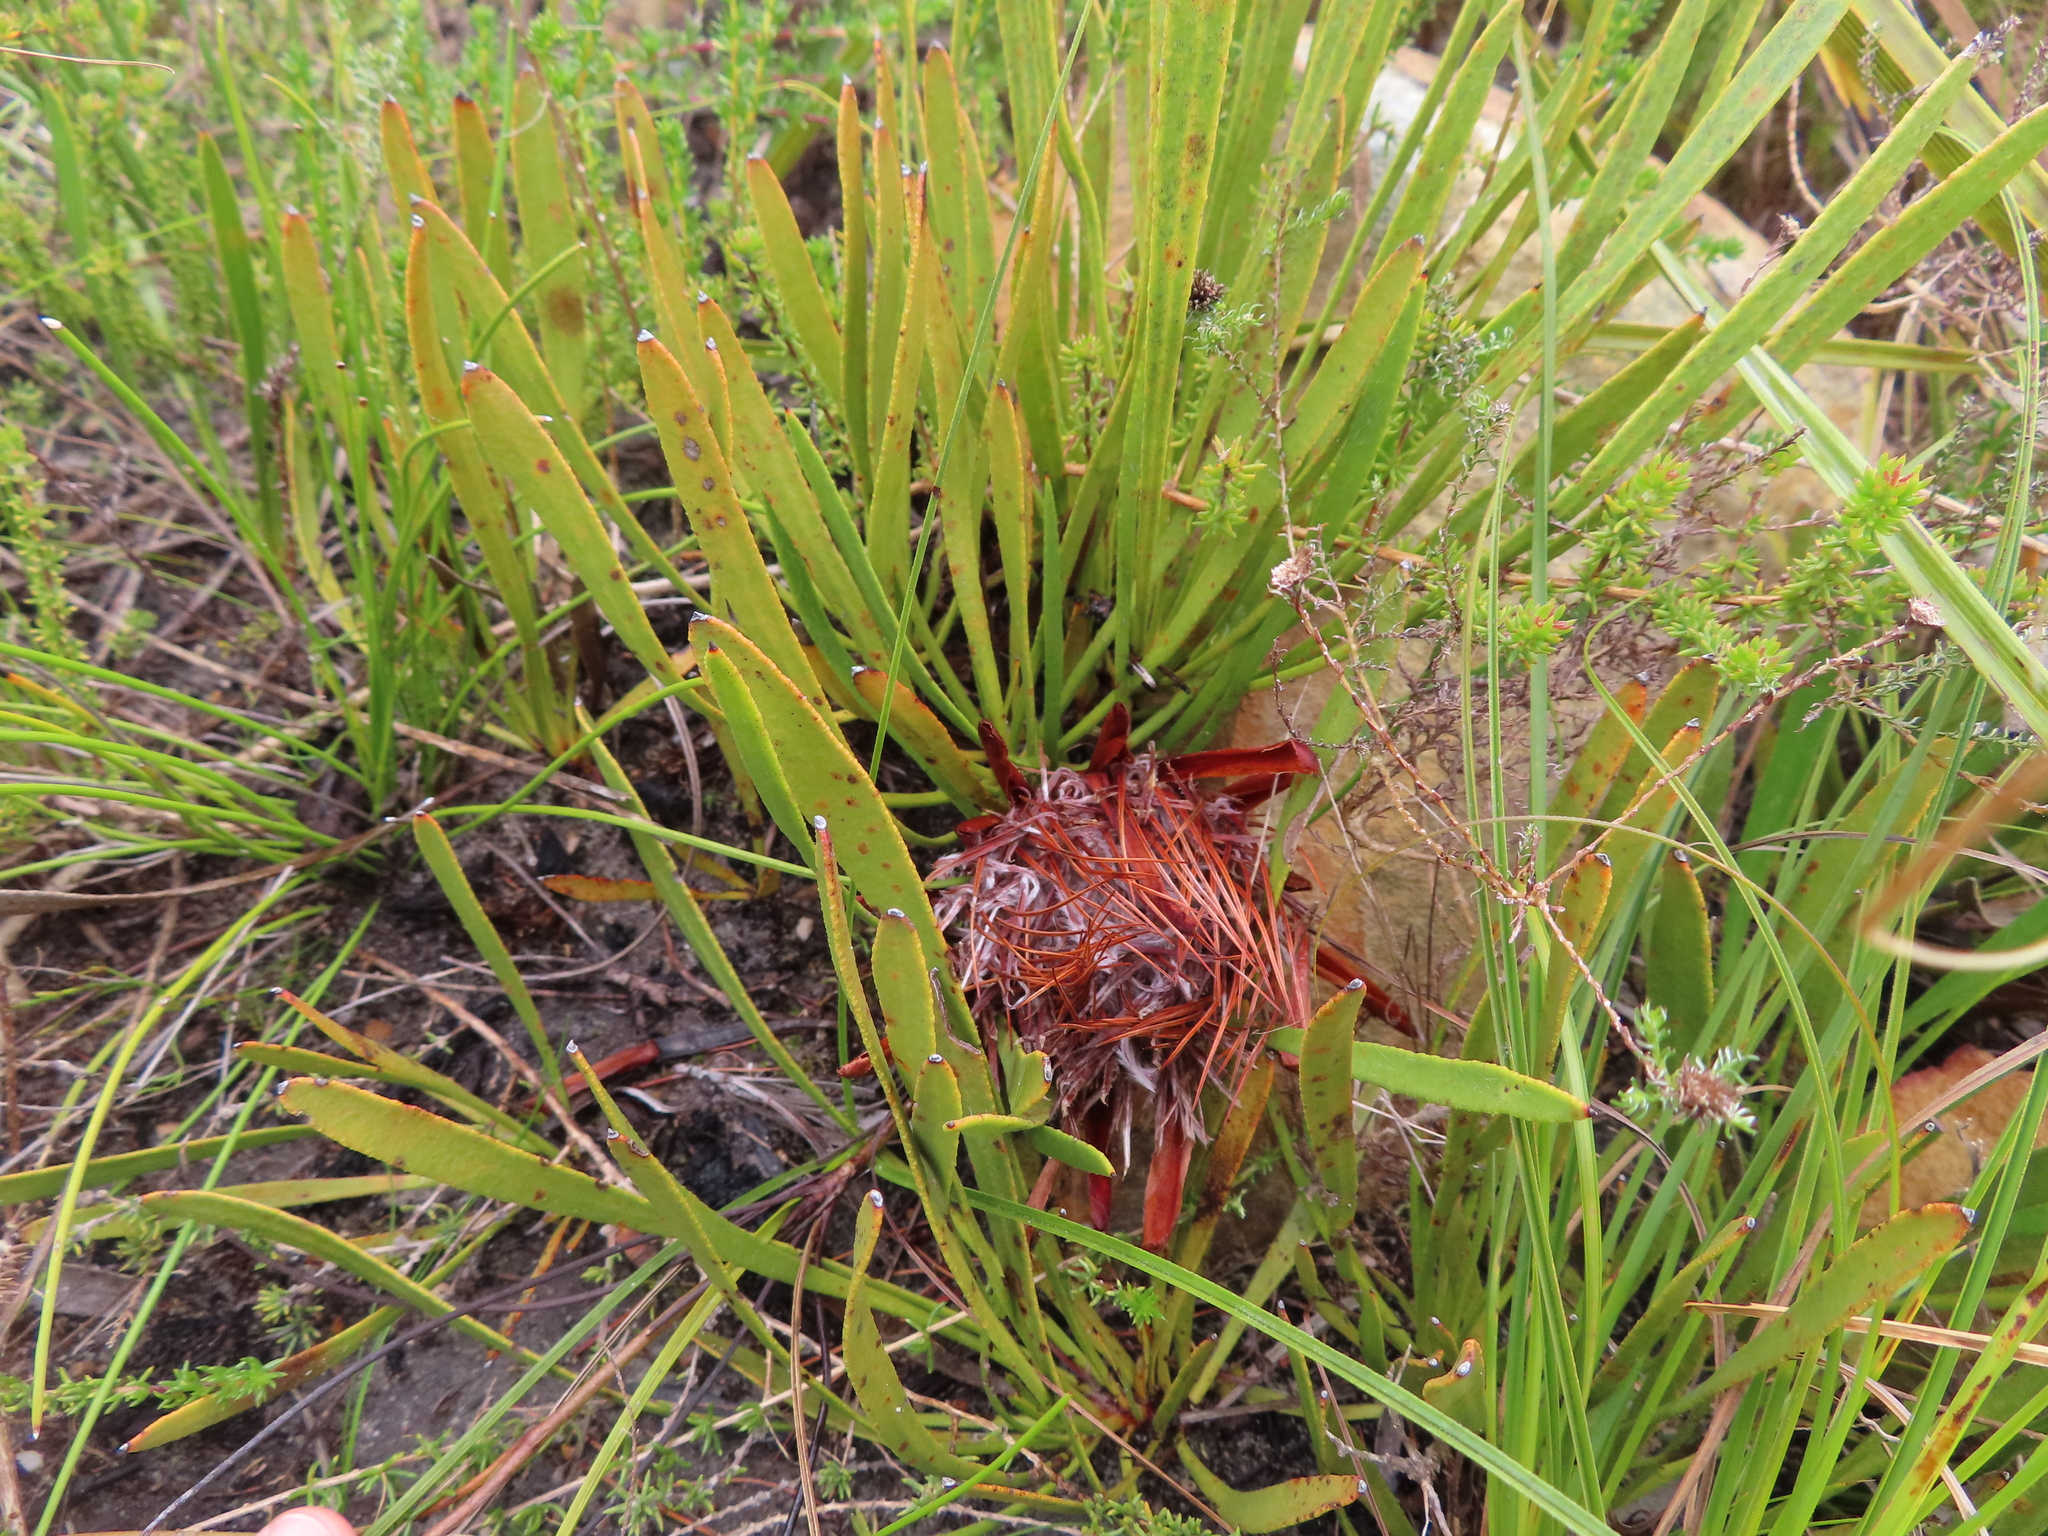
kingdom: Plantae
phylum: Tracheophyta
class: Magnoliopsida
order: Proteales
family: Proteaceae
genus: Protea
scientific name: Protea aspera
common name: Rough-leaf sugarbush
